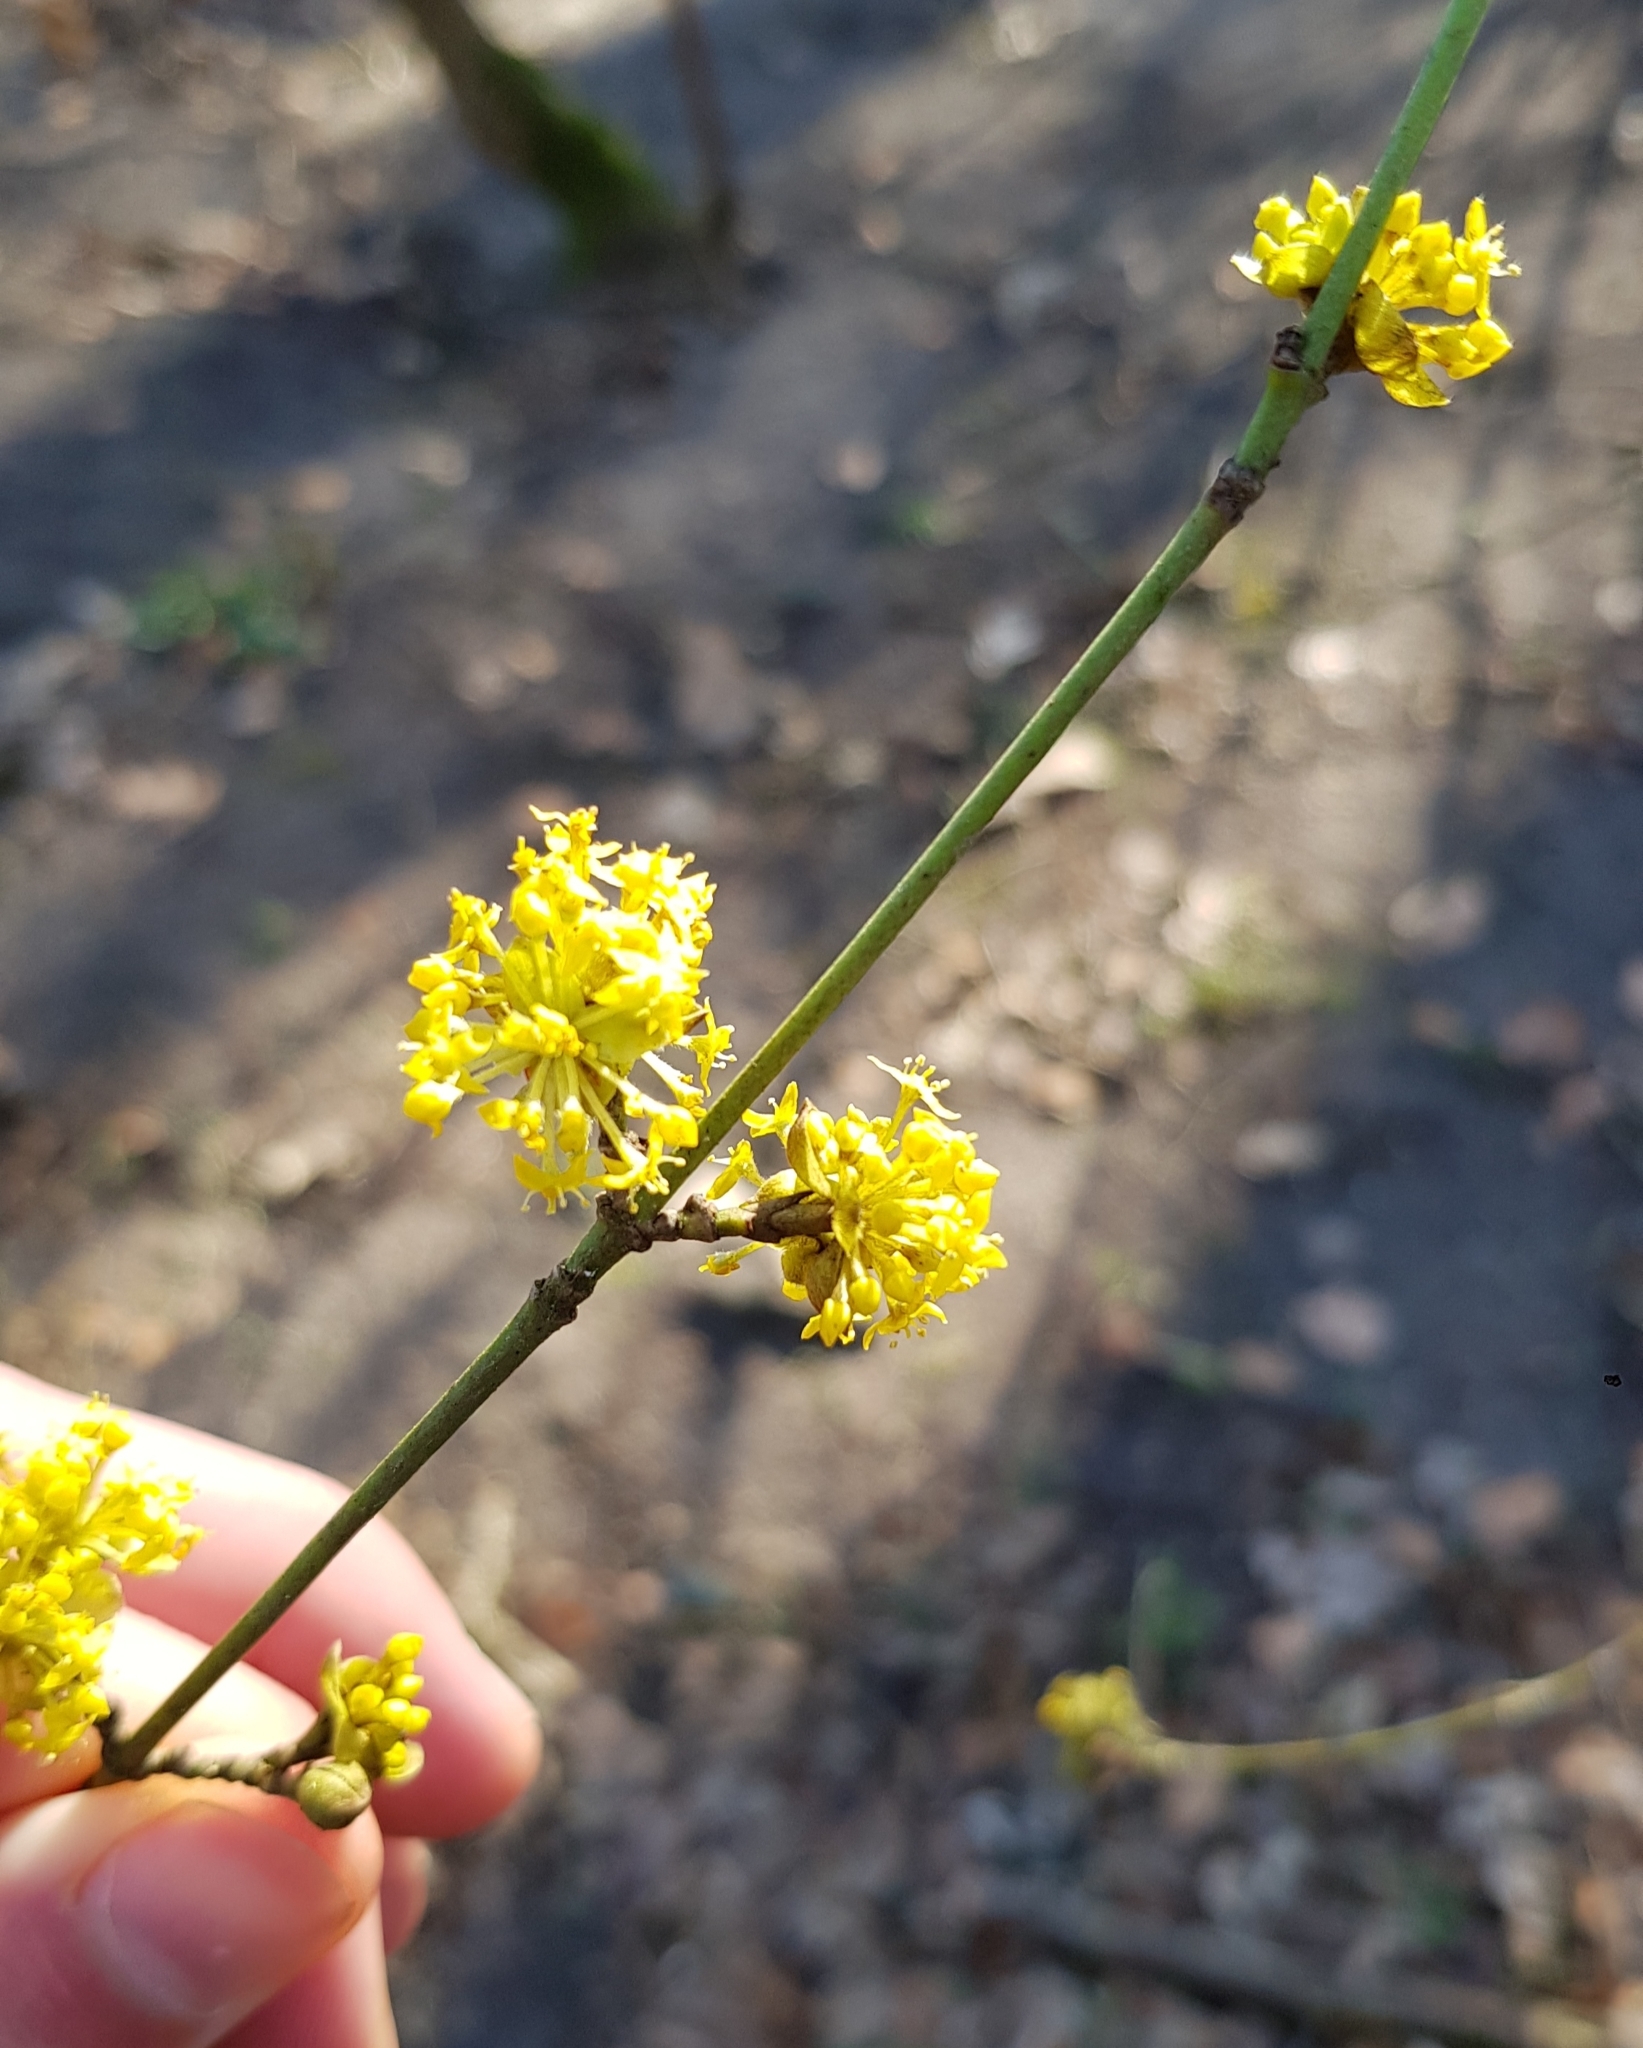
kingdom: Plantae
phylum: Tracheophyta
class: Magnoliopsida
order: Cornales
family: Cornaceae
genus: Cornus
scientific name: Cornus mas
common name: Cornelian-cherry
